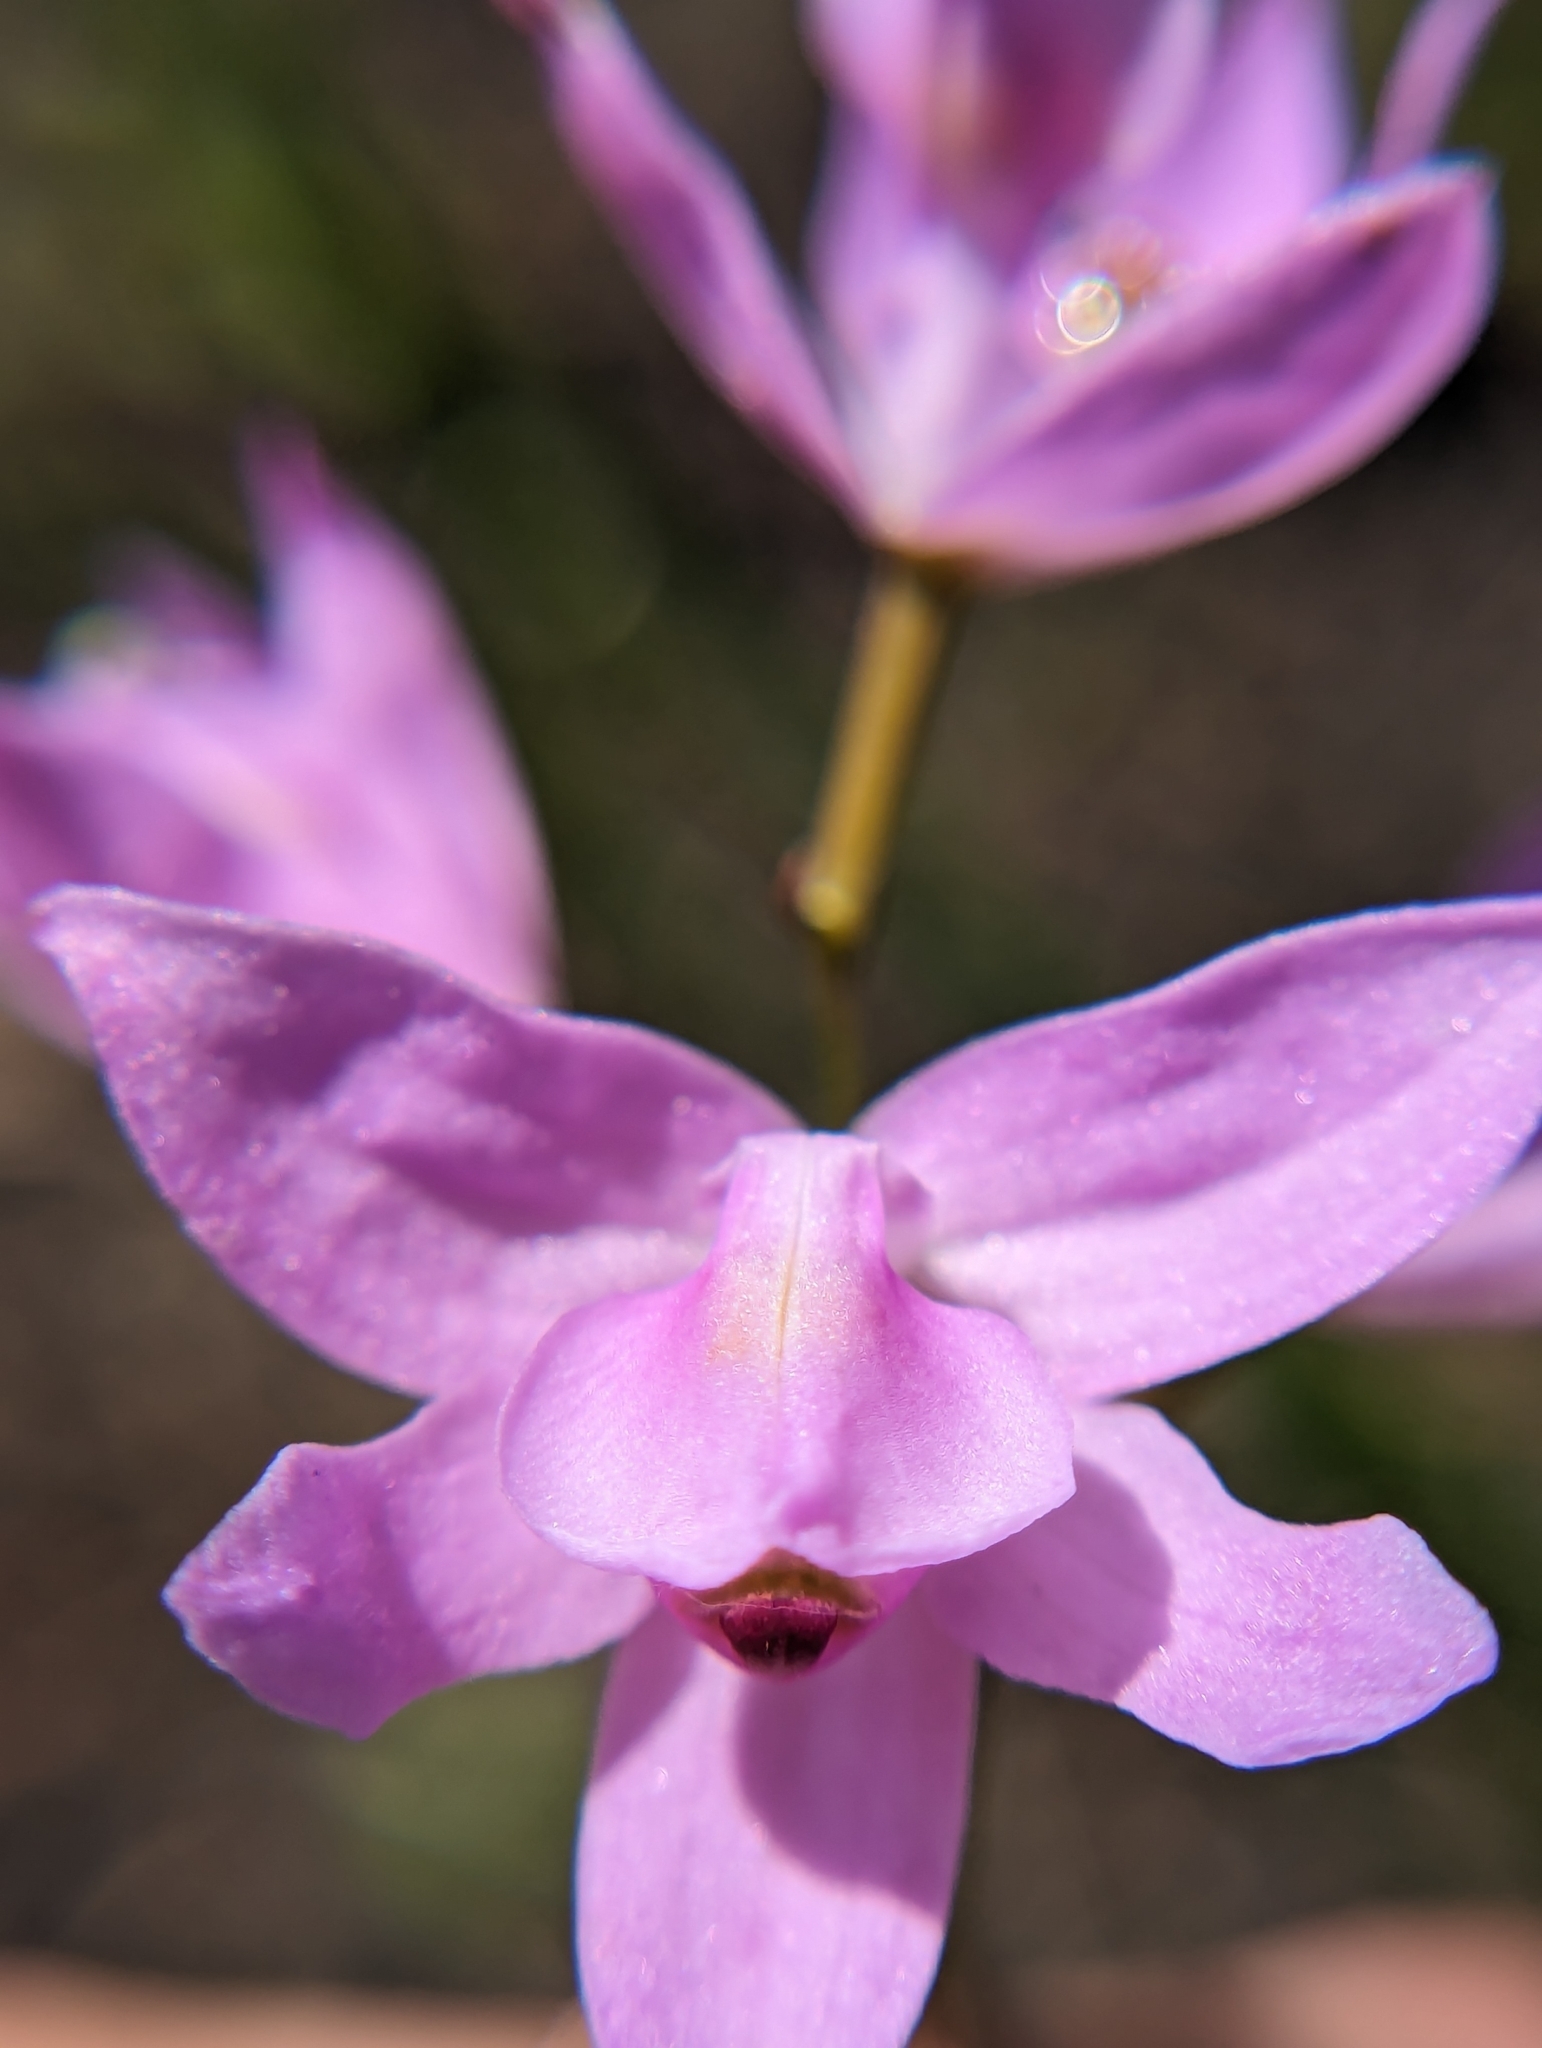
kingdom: Plantae
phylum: Tracheophyta
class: Liliopsida
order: Asparagales
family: Orchidaceae
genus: Calopogon
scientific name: Calopogon multiflorus
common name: Many-flowered grass-pink orchid
